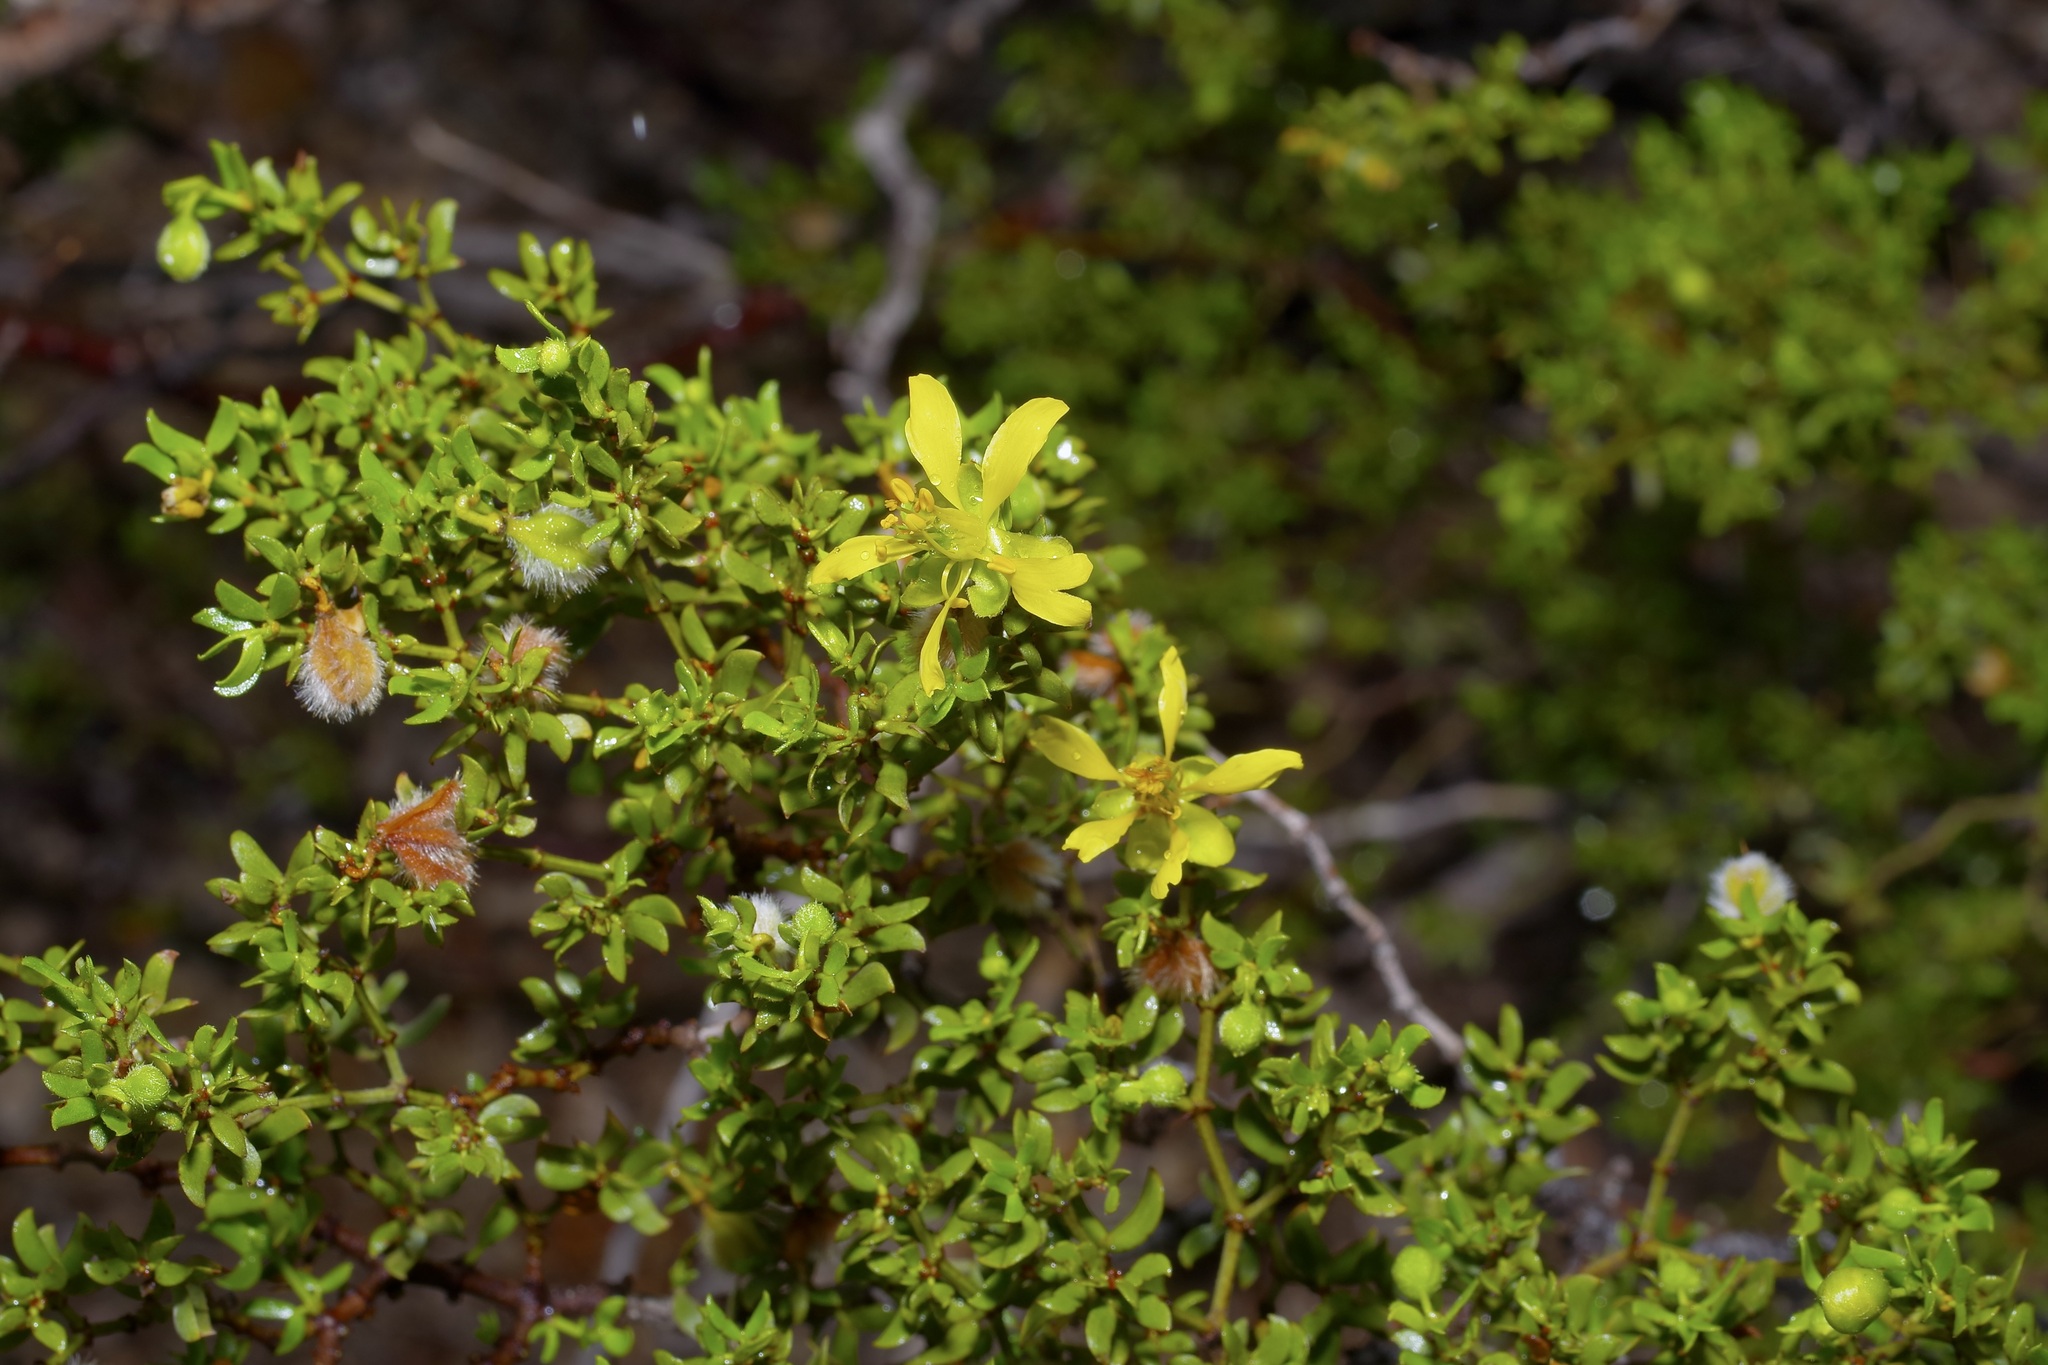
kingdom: Plantae
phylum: Tracheophyta
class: Magnoliopsida
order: Zygophyllales
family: Zygophyllaceae
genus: Larrea
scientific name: Larrea tridentata
